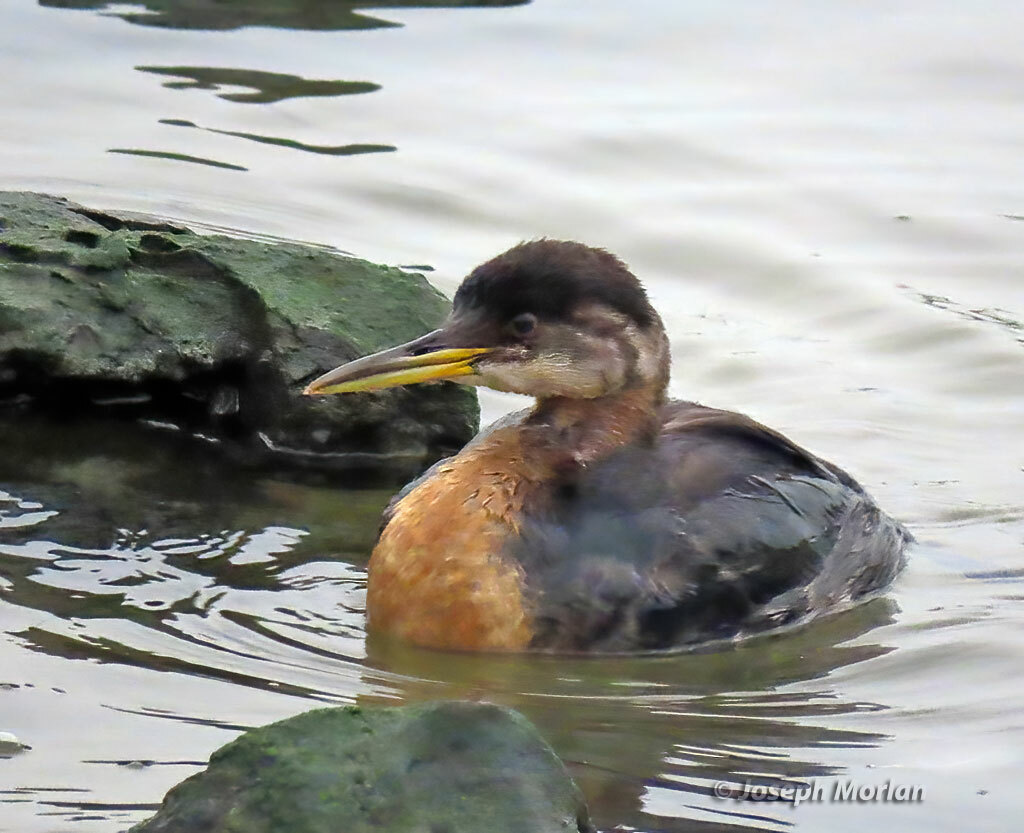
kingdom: Animalia
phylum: Chordata
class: Aves
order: Podicipediformes
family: Podicipedidae
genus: Podiceps
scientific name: Podiceps grisegena
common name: Red-necked grebe
